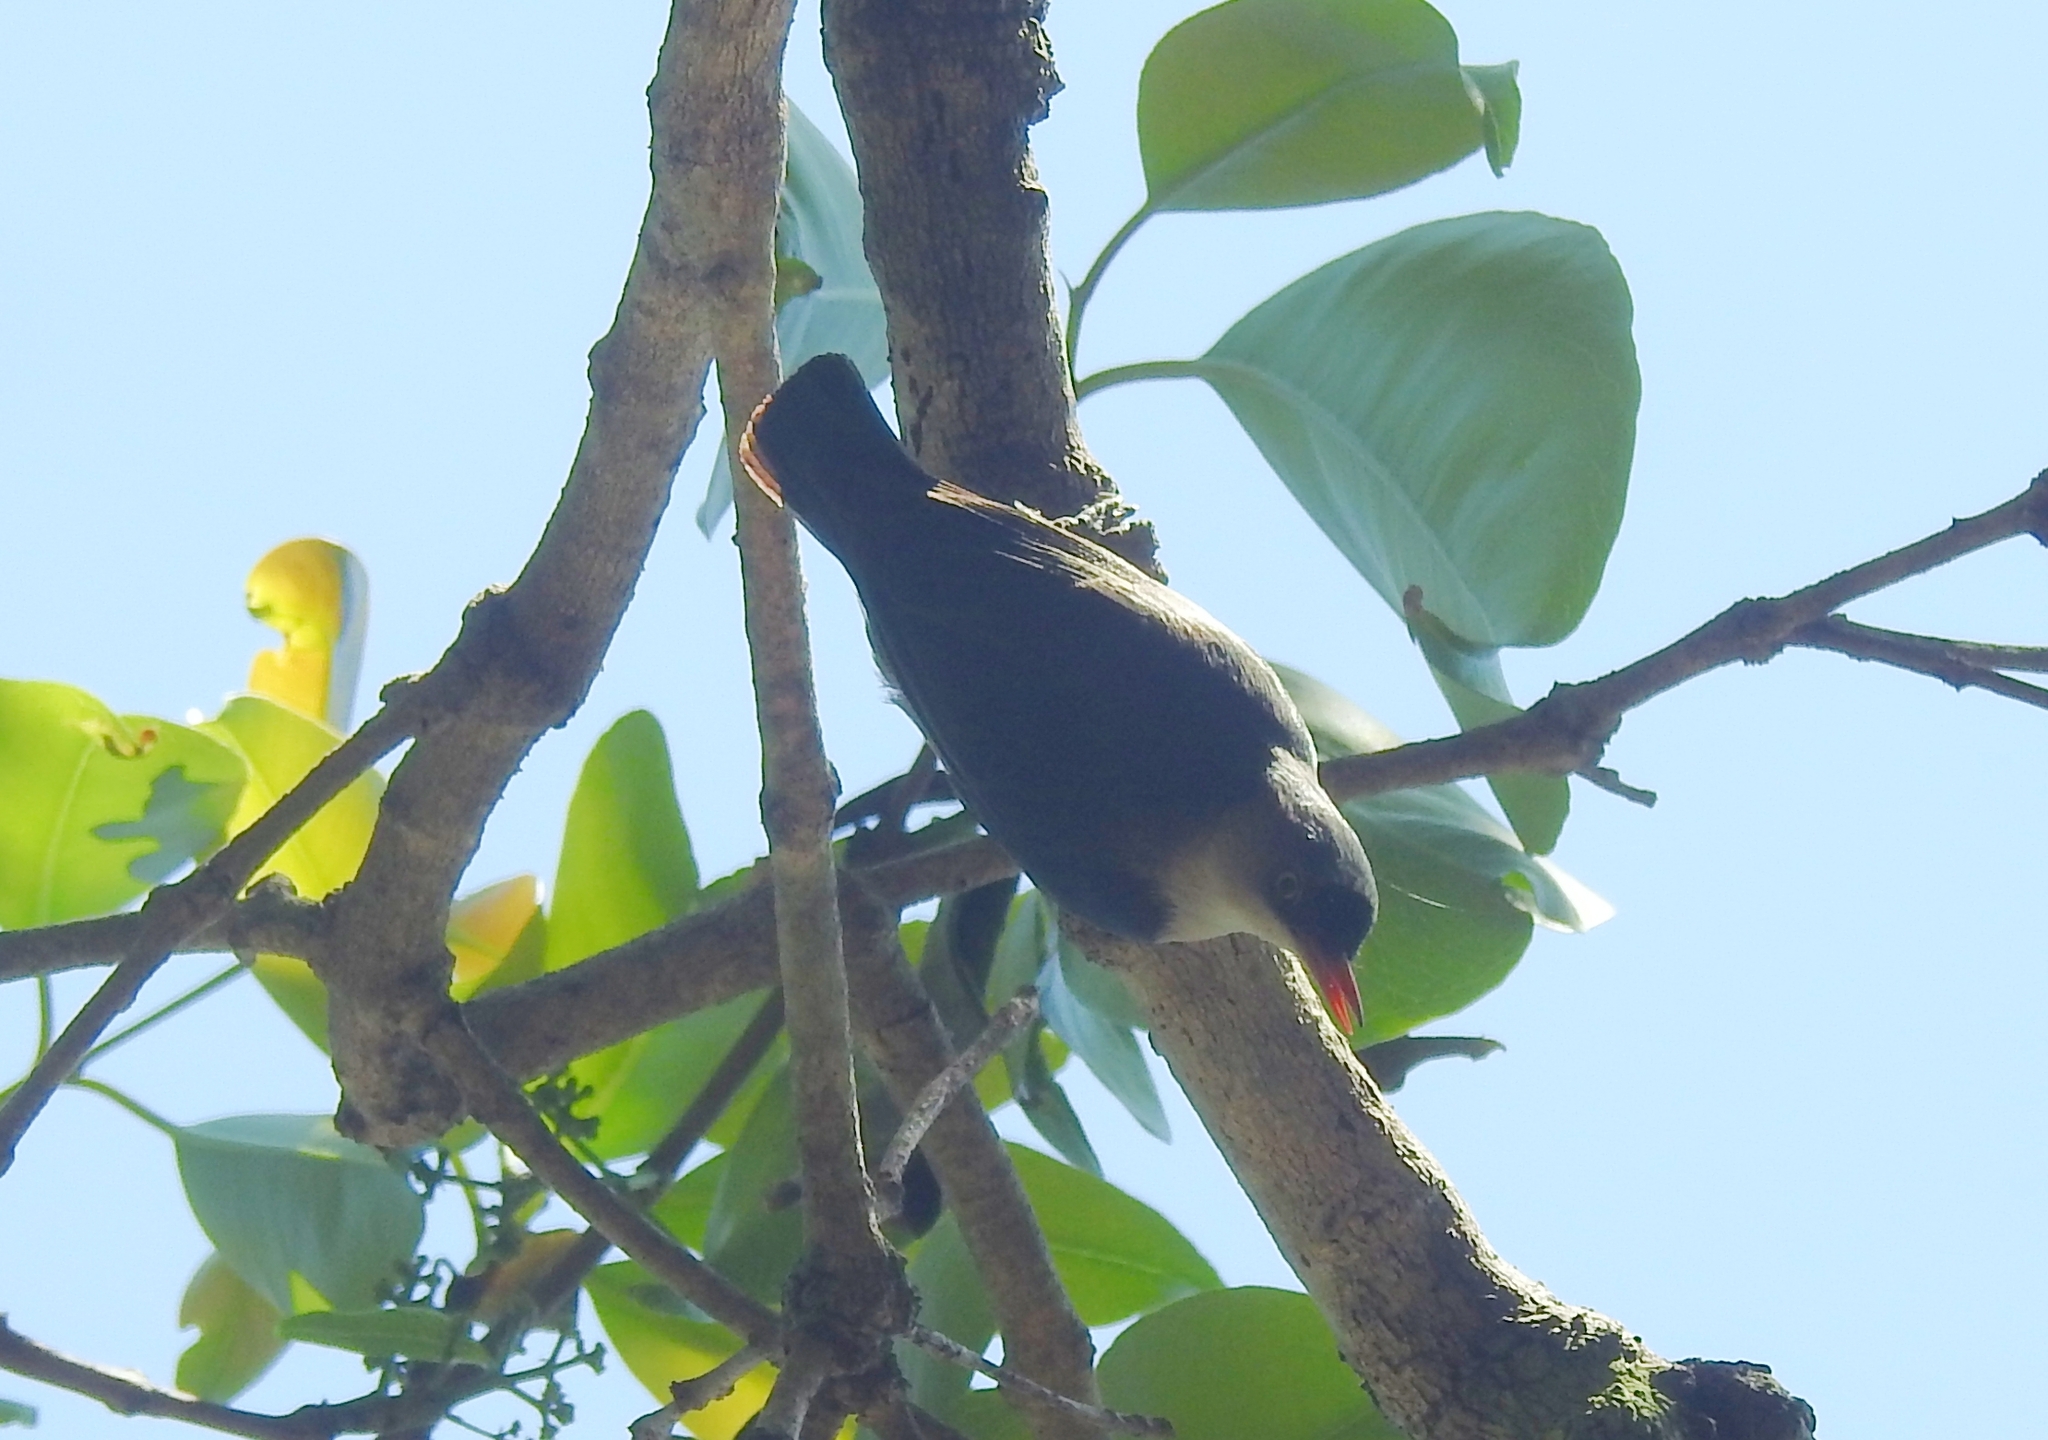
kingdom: Animalia
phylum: Chordata
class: Aves
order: Passeriformes
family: Sittidae
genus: Sitta
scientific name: Sitta frontalis
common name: Velvet-fronted nuthatch
